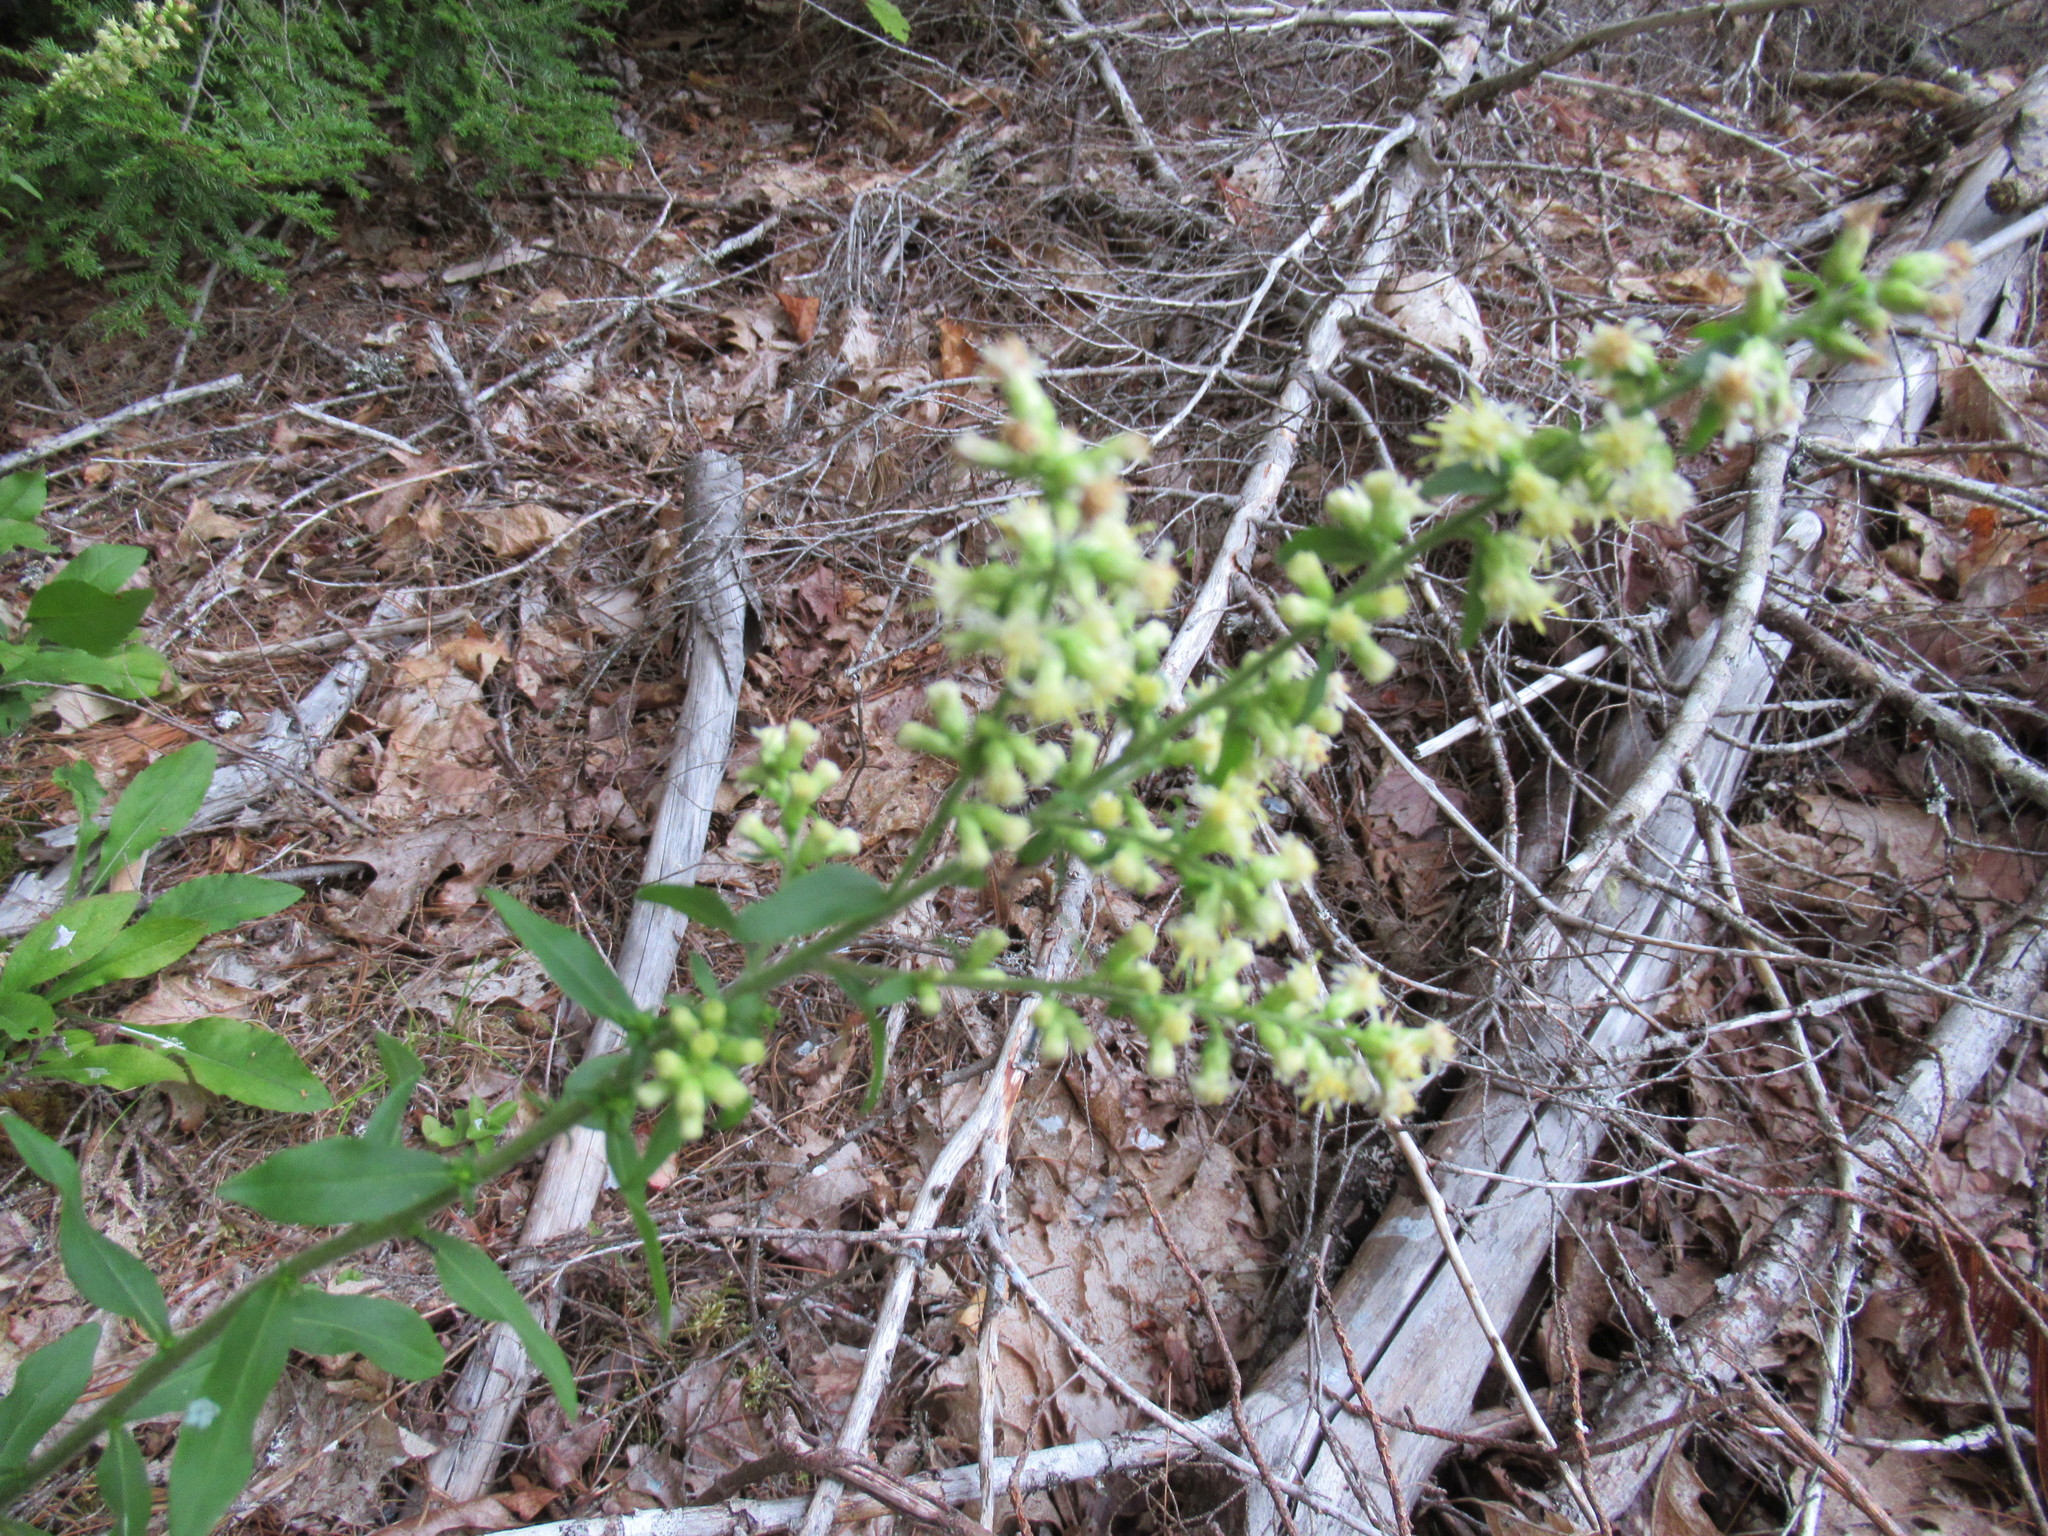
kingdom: Plantae
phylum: Tracheophyta
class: Magnoliopsida
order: Asterales
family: Asteraceae
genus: Solidago
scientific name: Solidago bicolor
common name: Silverrod
